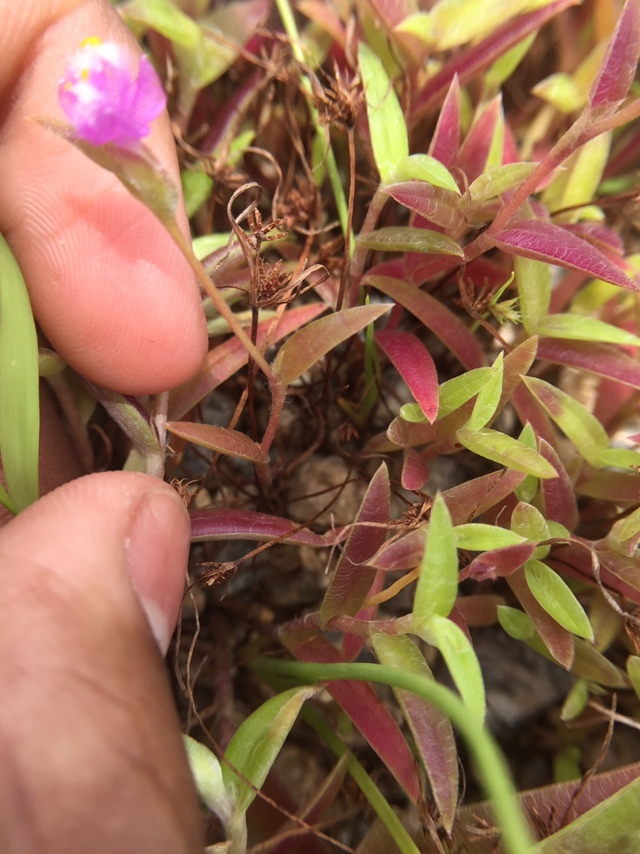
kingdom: Plantae
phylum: Tracheophyta
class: Liliopsida
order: Commelinales
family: Commelinaceae
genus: Cyanotis
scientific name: Cyanotis fasciculata
